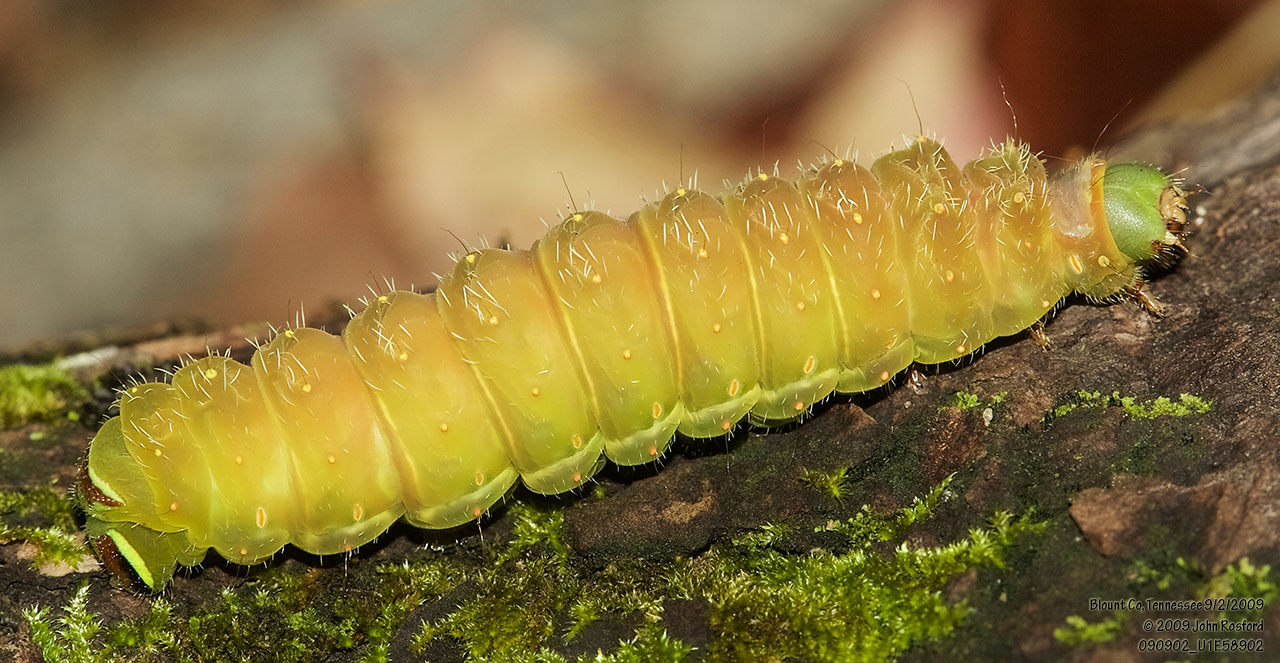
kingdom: Animalia
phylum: Arthropoda
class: Insecta
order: Lepidoptera
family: Saturniidae
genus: Actias
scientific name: Actias luna
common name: Luna moth
